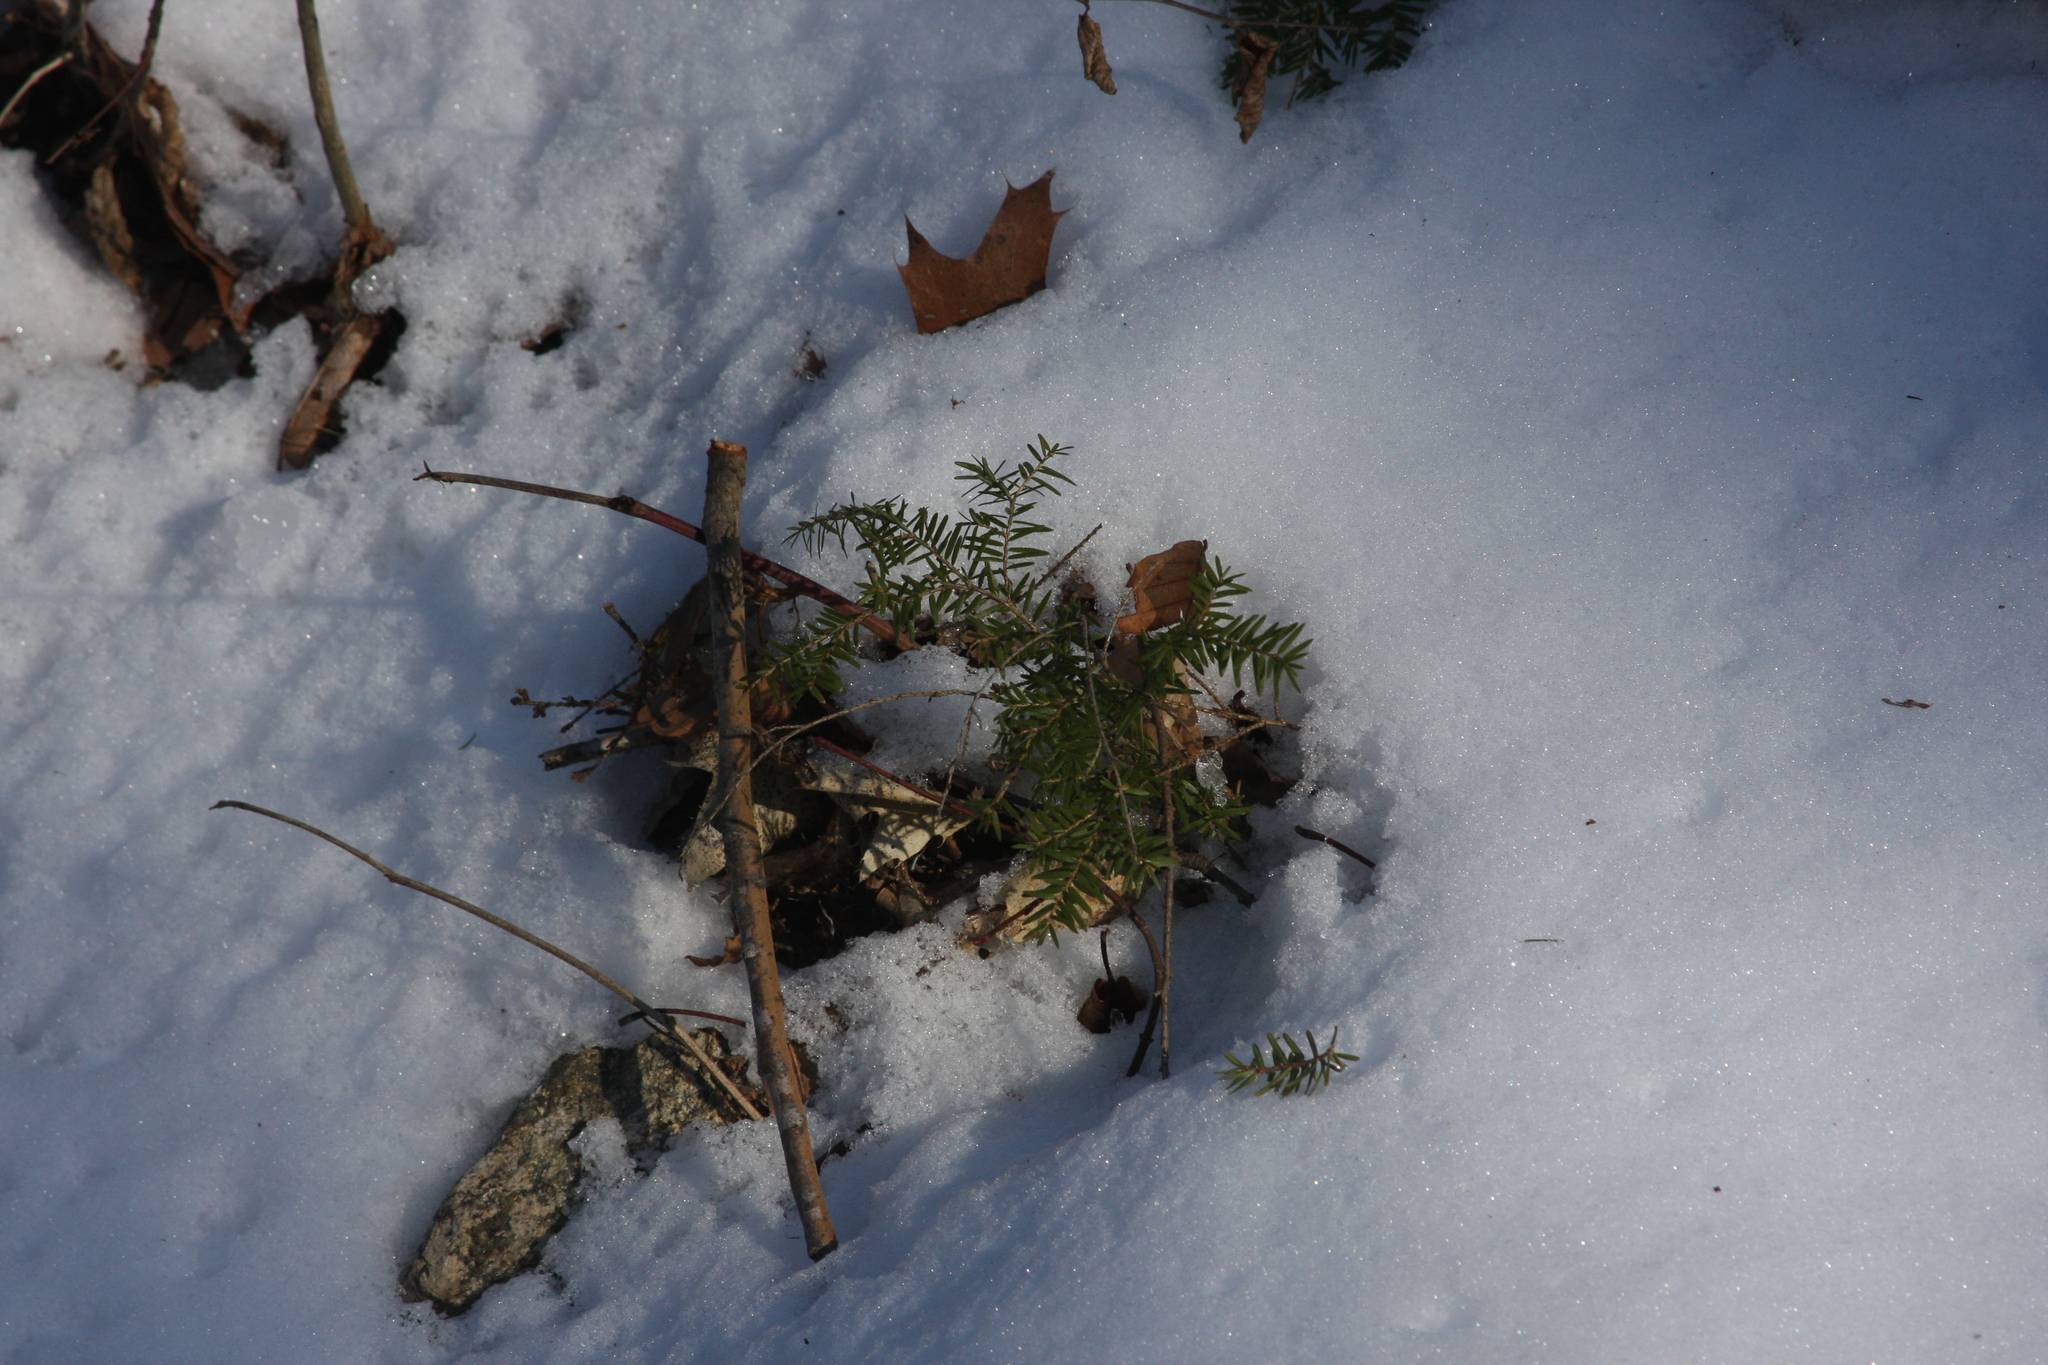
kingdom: Plantae
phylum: Tracheophyta
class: Pinopsida
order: Pinales
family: Pinaceae
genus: Tsuga
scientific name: Tsuga canadensis
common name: Eastern hemlock
